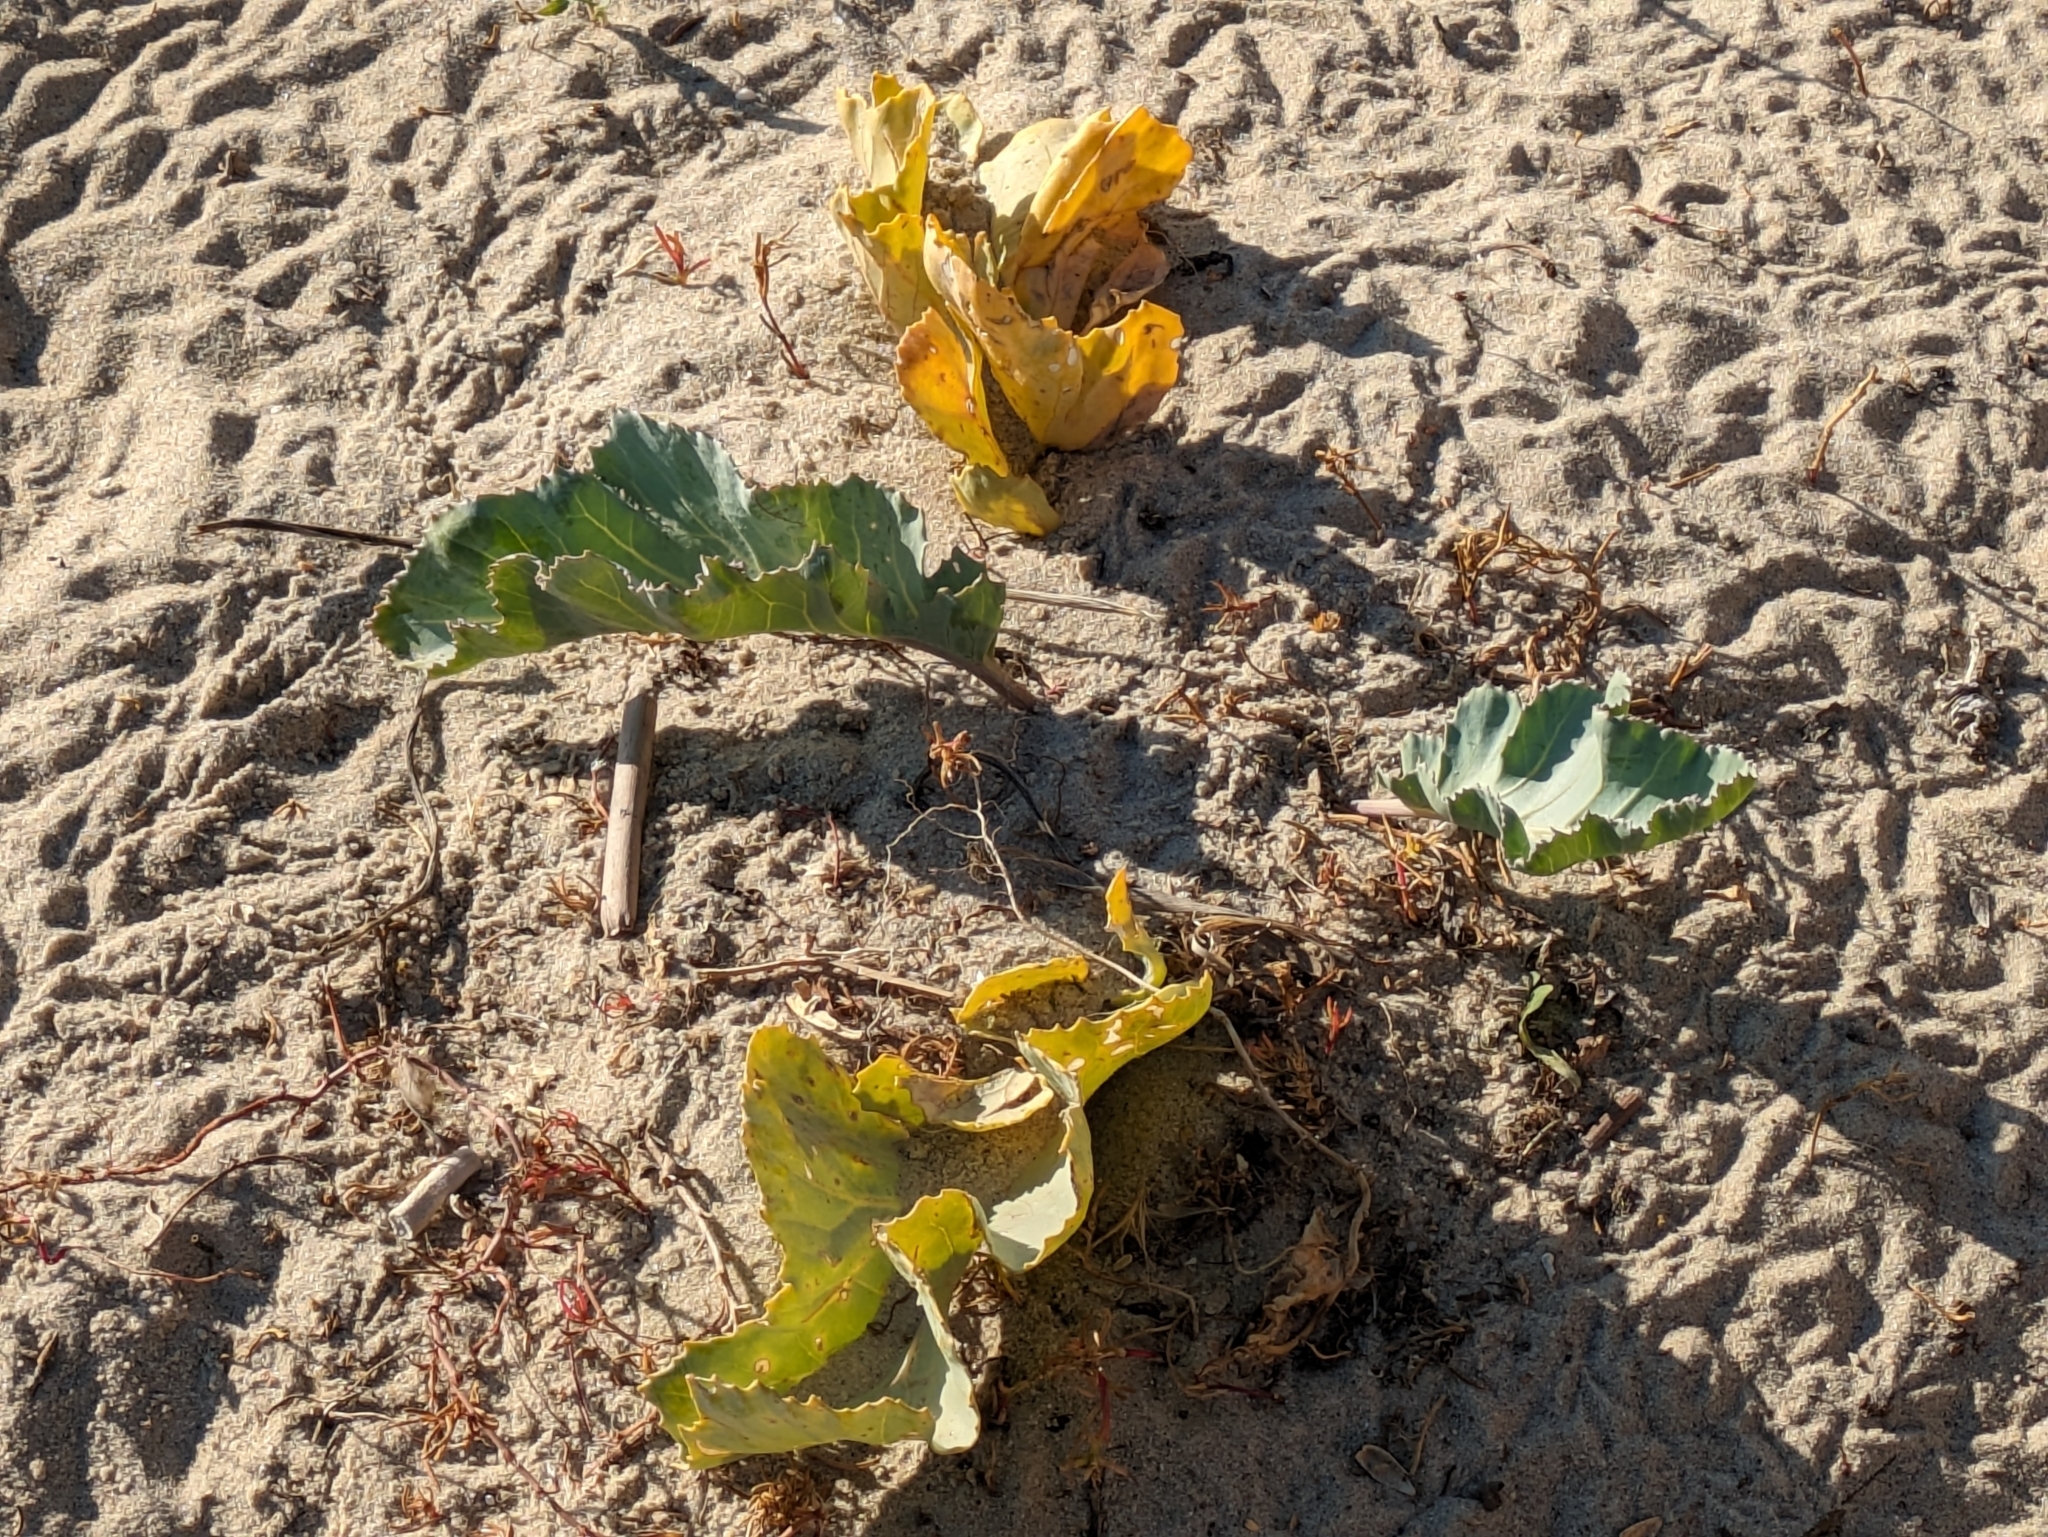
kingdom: Plantae
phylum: Tracheophyta
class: Magnoliopsida
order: Brassicales
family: Brassicaceae
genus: Crambe
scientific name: Crambe maritima
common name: Sea-kale
